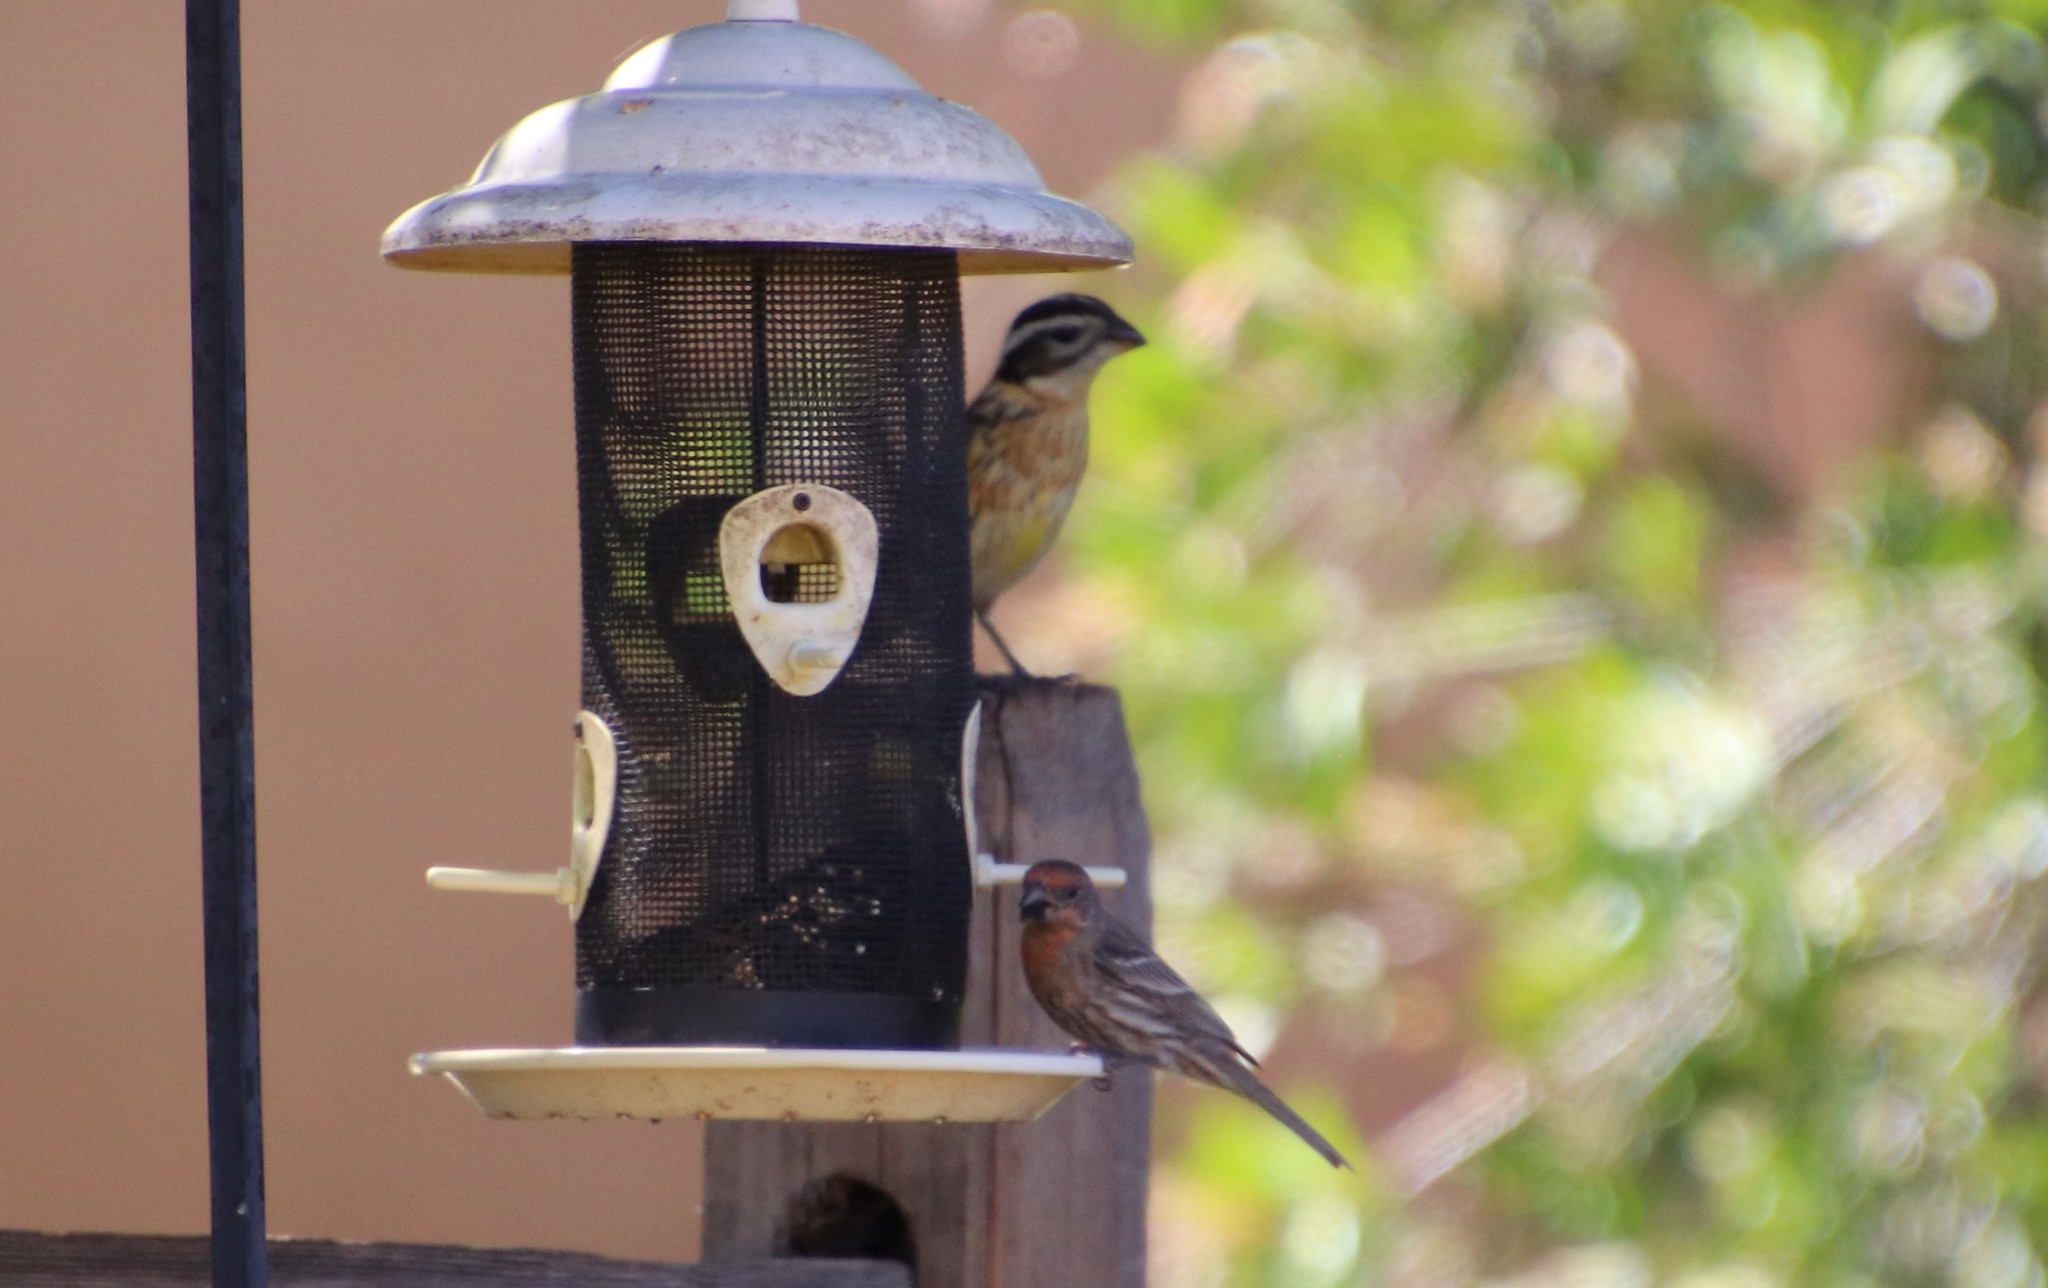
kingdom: Animalia
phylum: Chordata
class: Aves
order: Passeriformes
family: Cardinalidae
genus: Pheucticus
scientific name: Pheucticus melanocephalus
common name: Black-headed grosbeak
